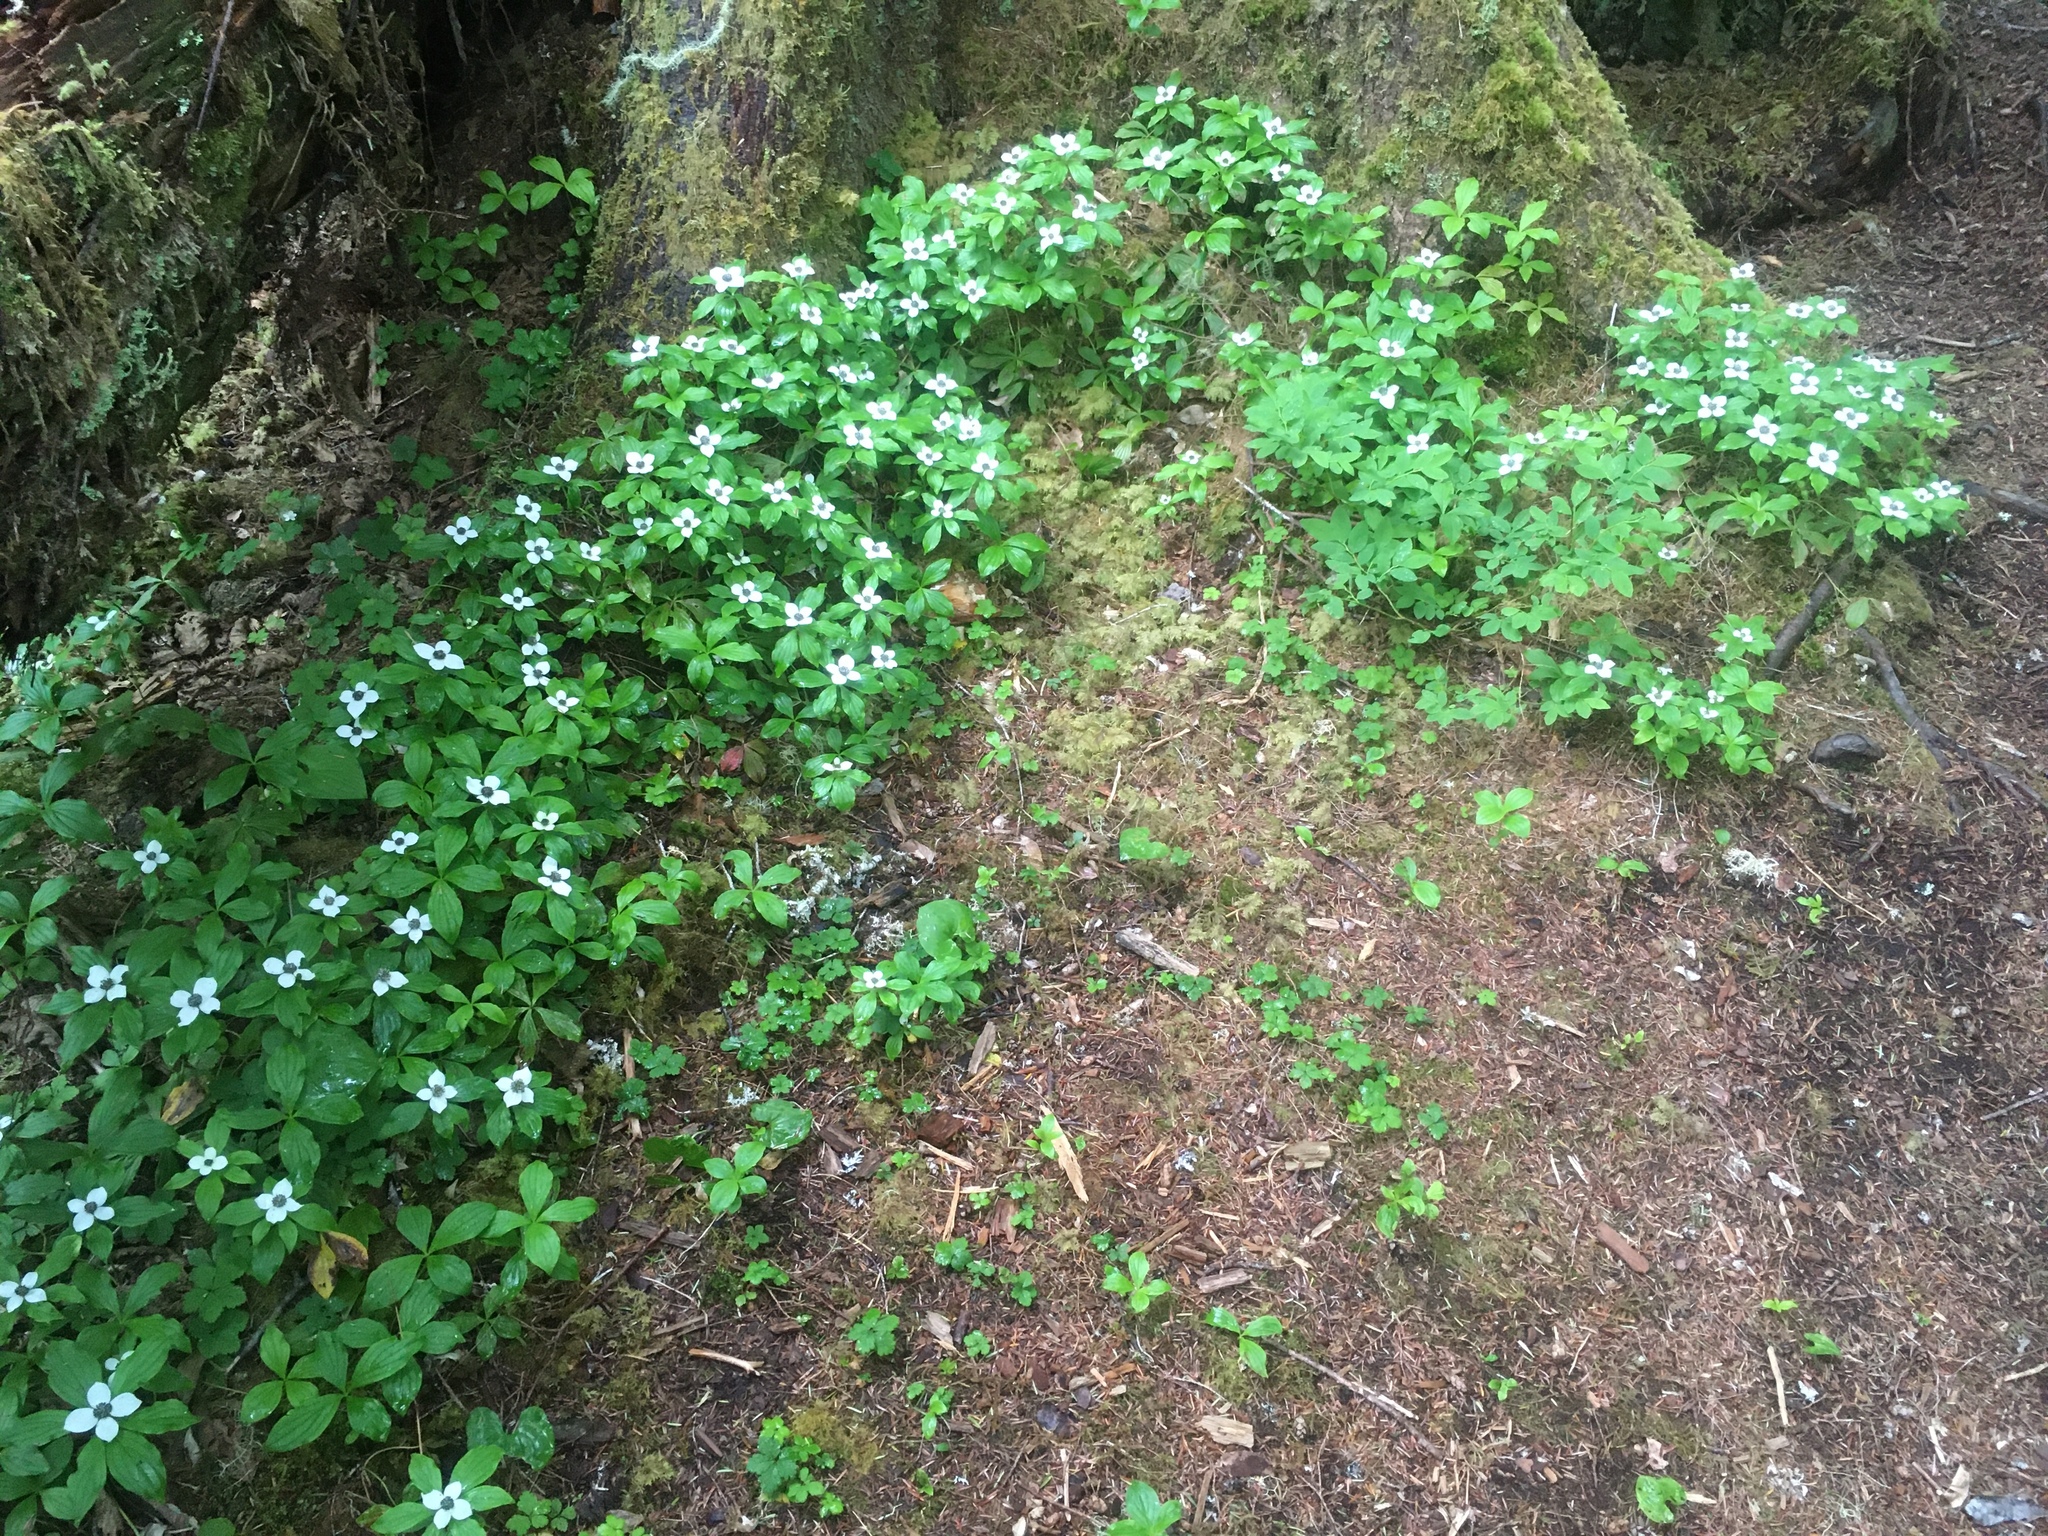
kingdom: Plantae
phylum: Tracheophyta
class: Magnoliopsida
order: Cornales
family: Cornaceae
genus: Cornus
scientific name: Cornus unalaschkensis
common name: Alaska bunchberry
